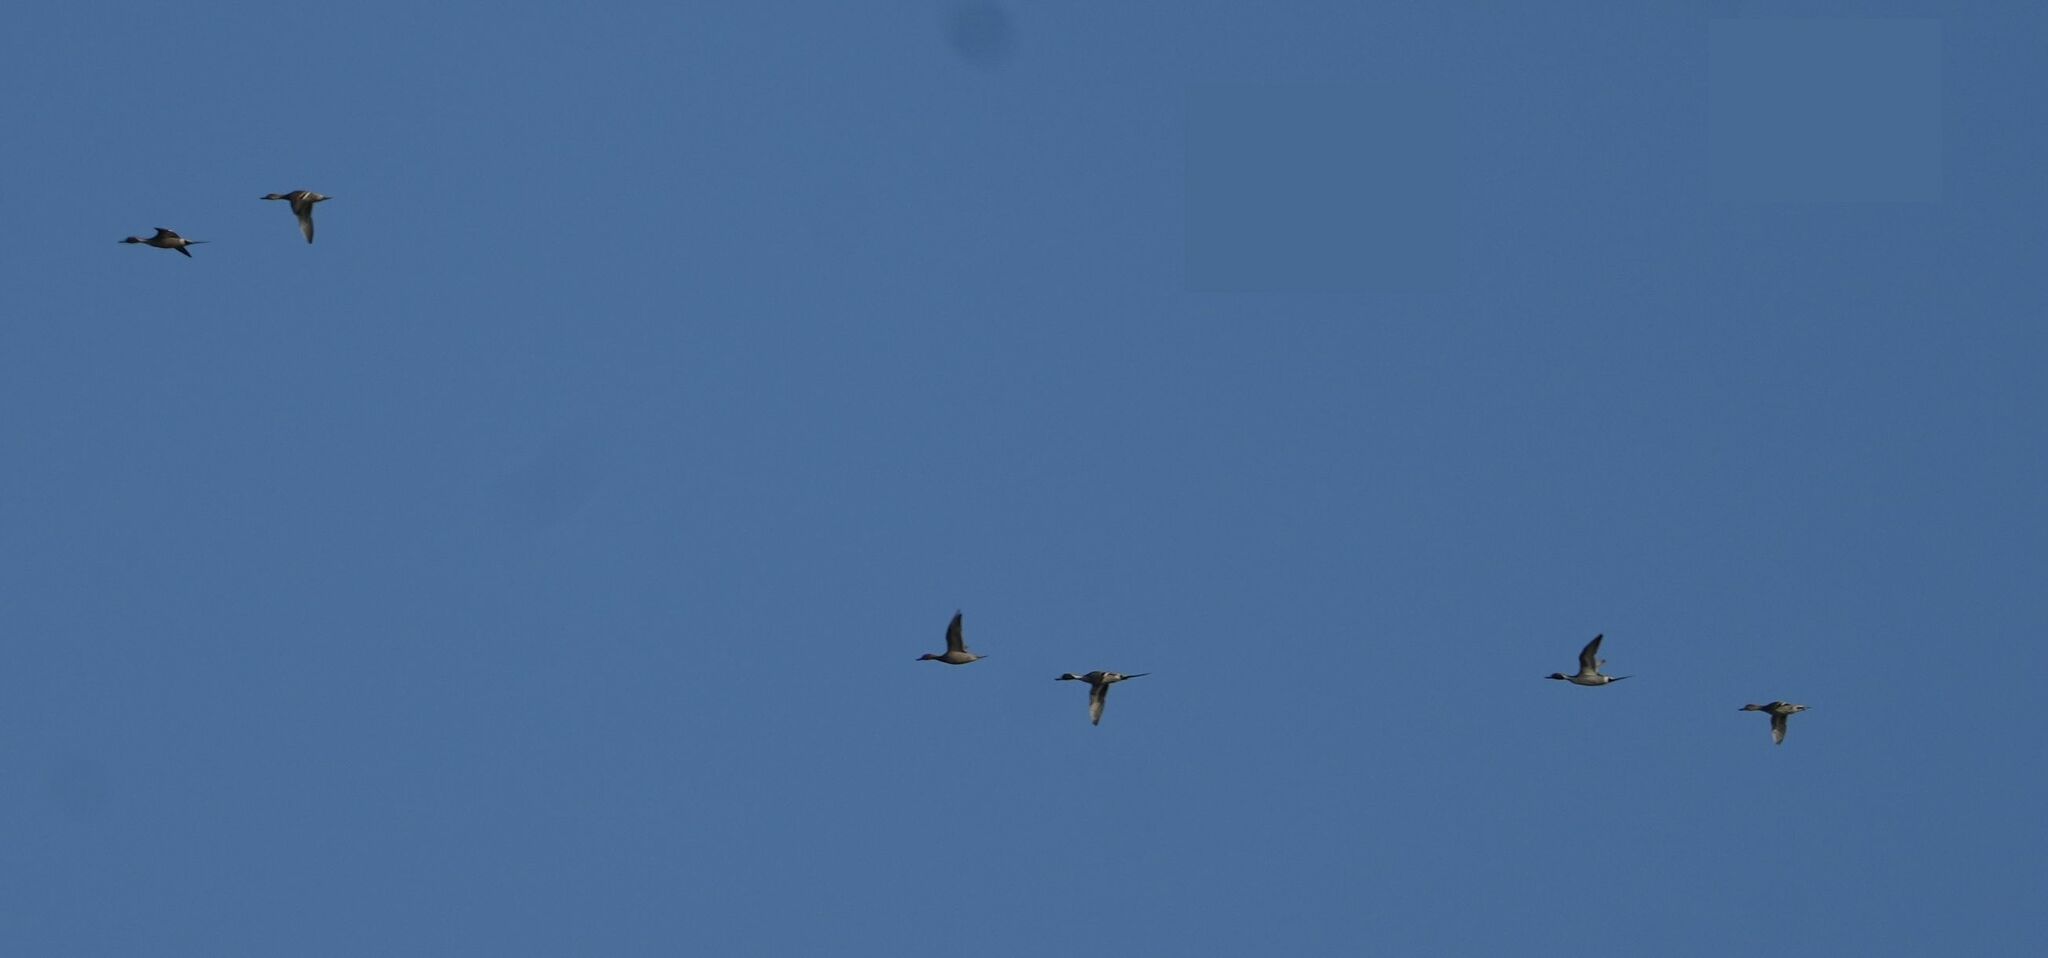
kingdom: Animalia
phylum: Chordata
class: Aves
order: Anseriformes
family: Anatidae
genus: Anas
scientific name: Anas acuta
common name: Northern pintail
